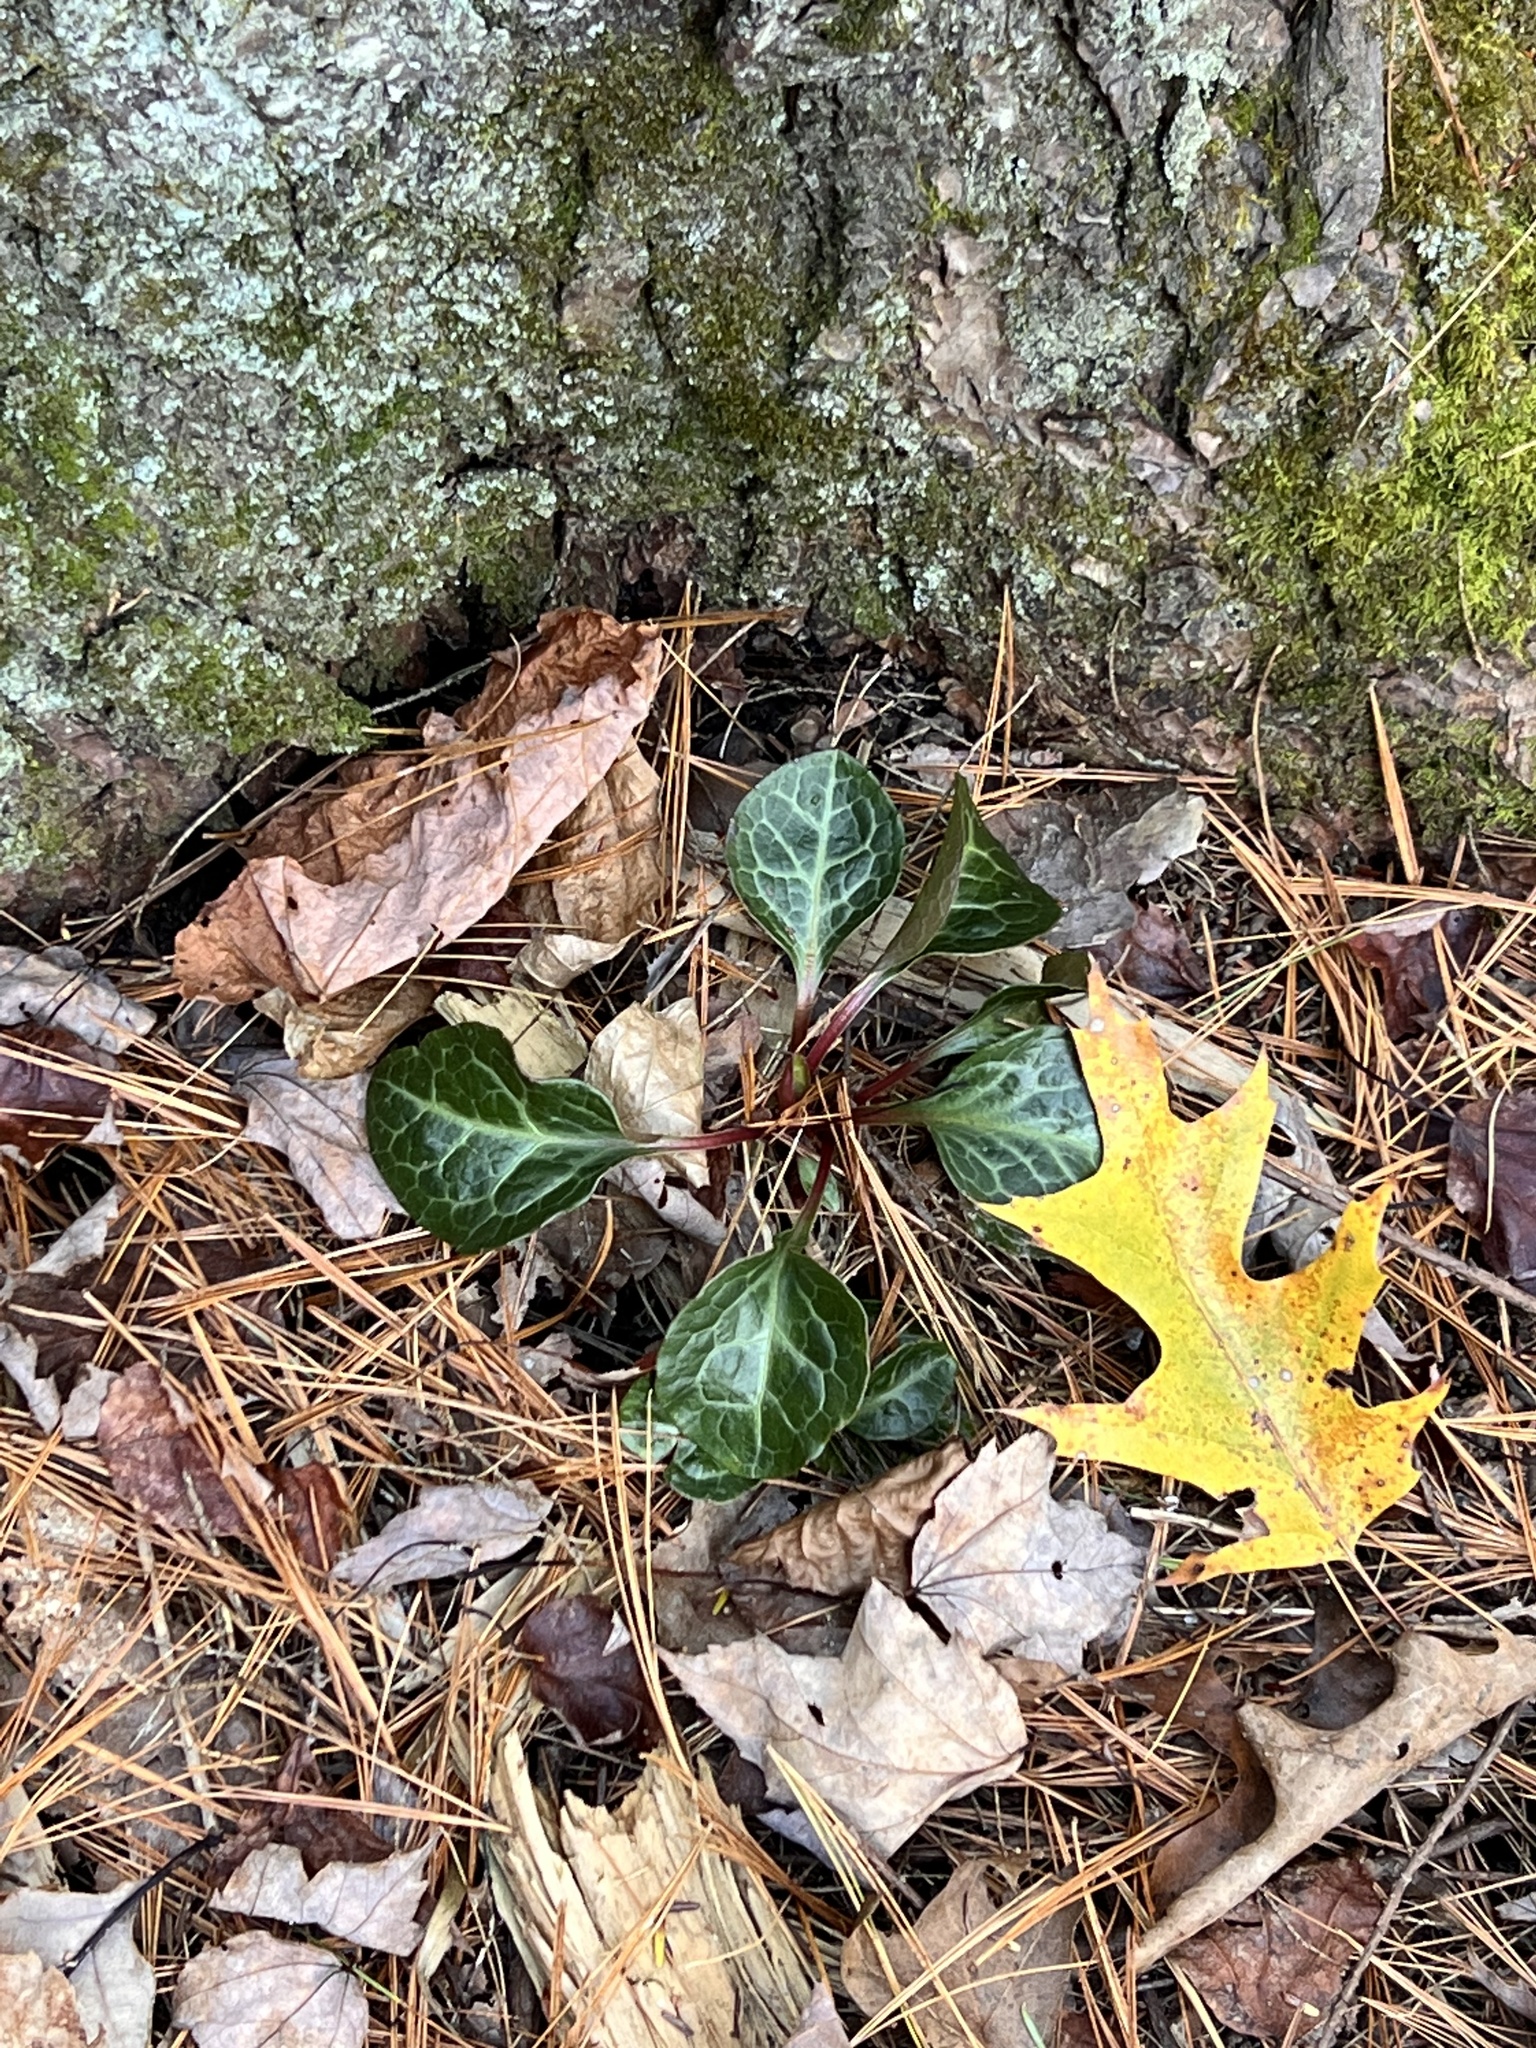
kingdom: Plantae
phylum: Tracheophyta
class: Magnoliopsida
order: Ericales
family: Ericaceae
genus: Pyrola
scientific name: Pyrola americana
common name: American wintergreen
